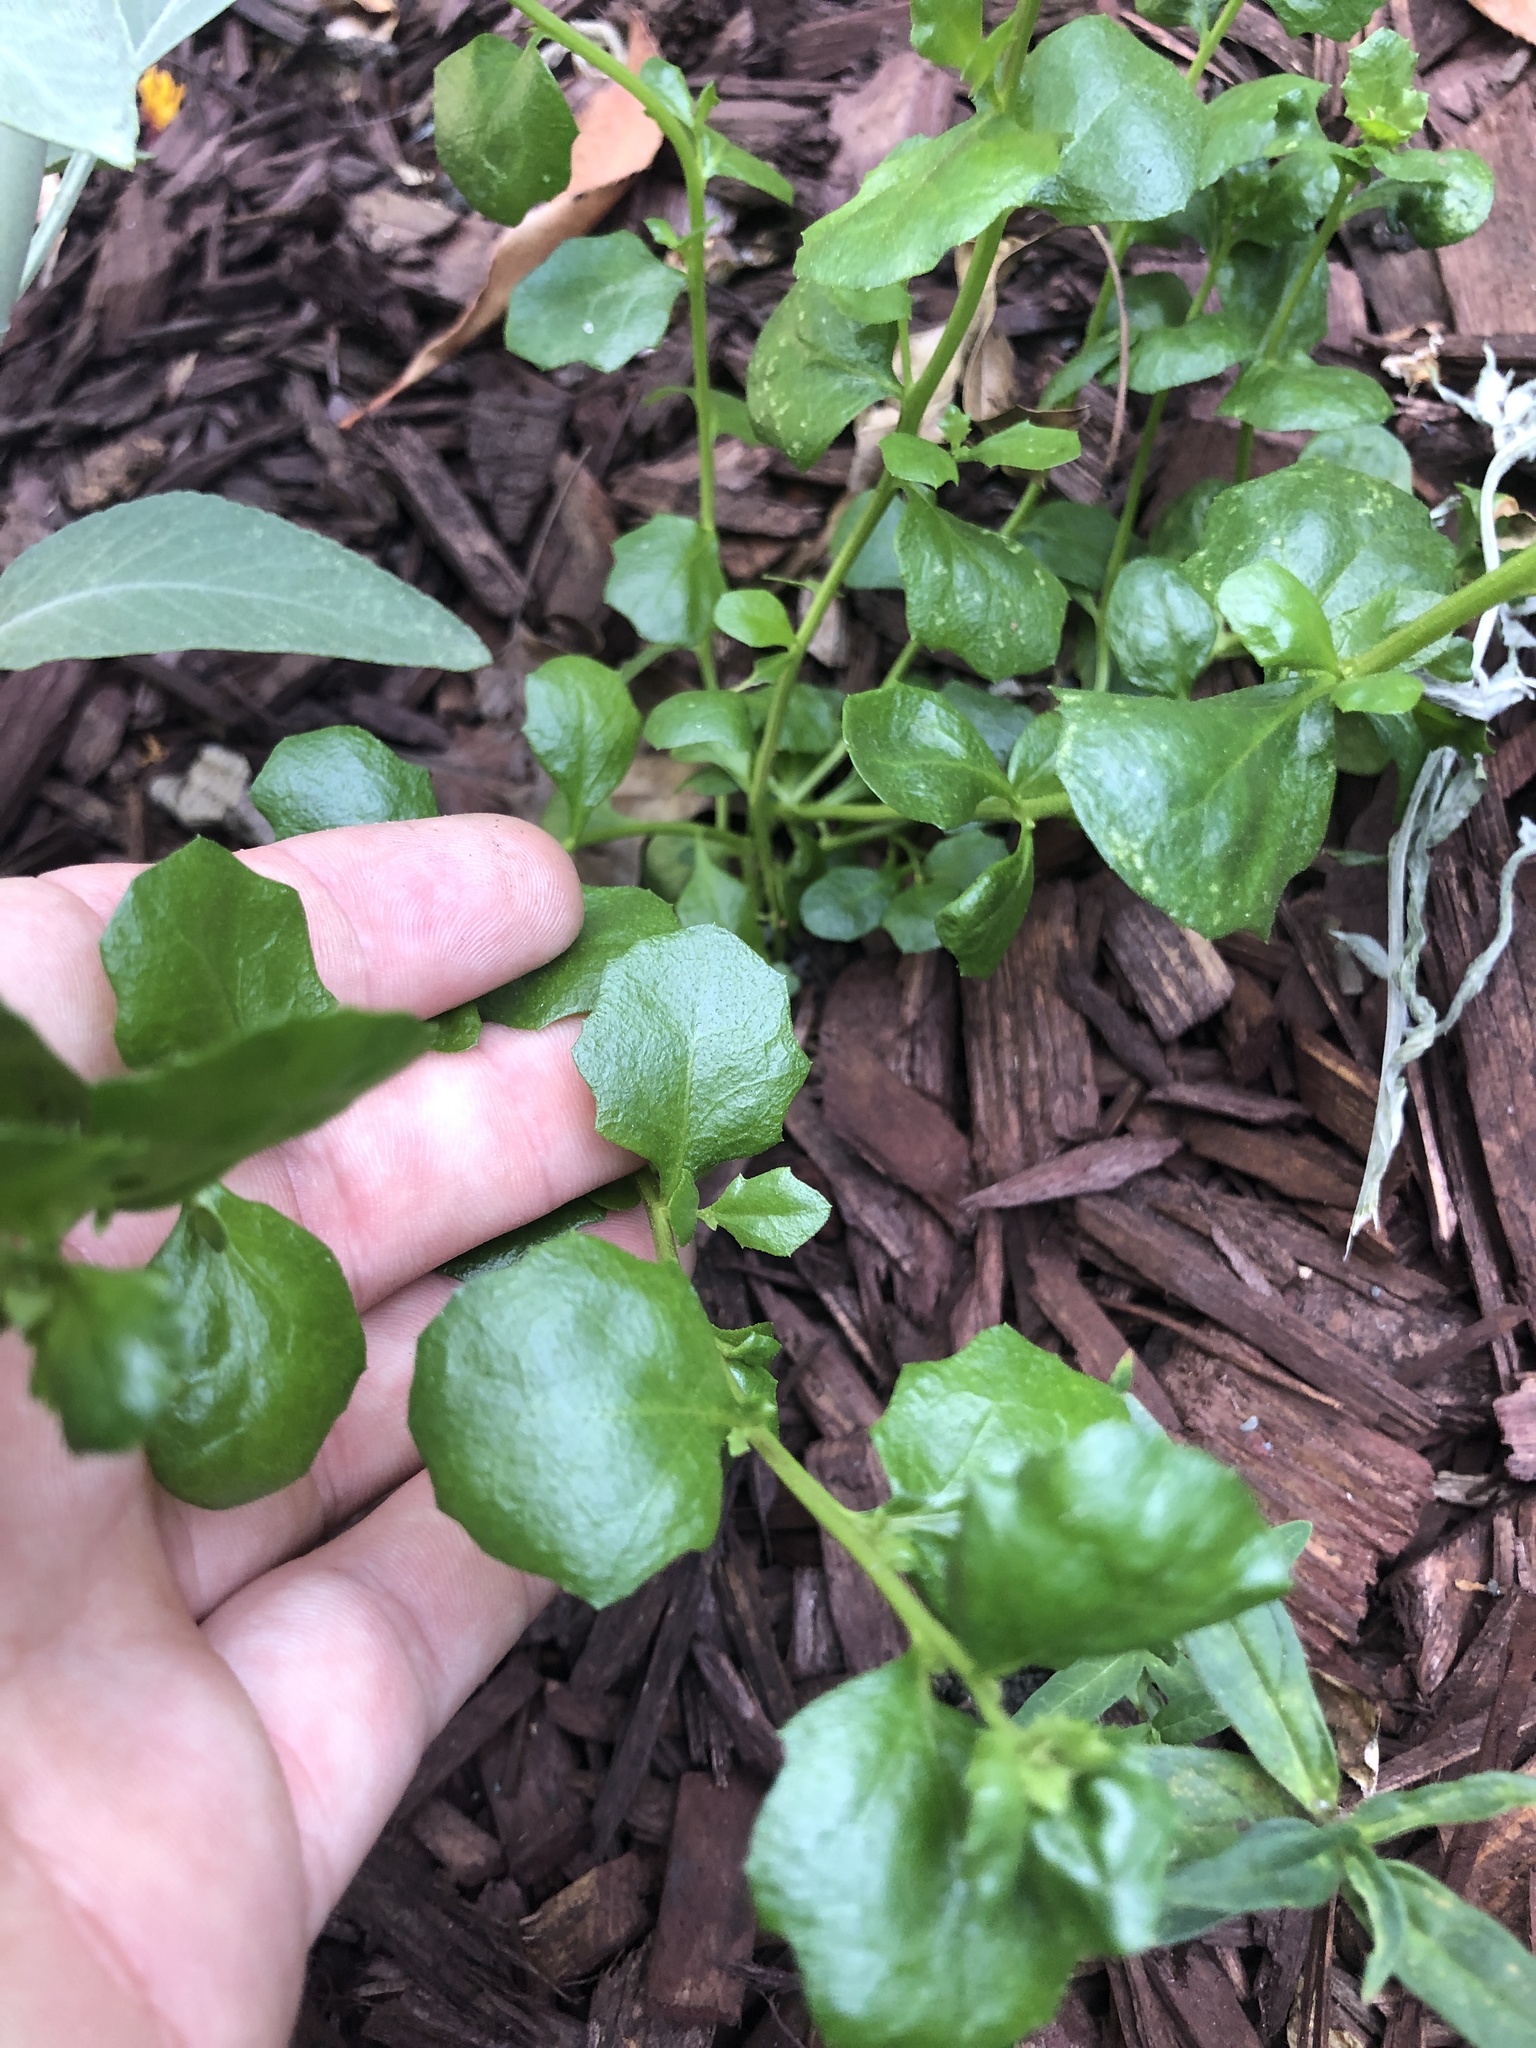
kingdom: Plantae
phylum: Tracheophyta
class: Magnoliopsida
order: Asterales
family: Asteraceae
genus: Baccharis
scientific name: Baccharis pilularis
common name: Coyotebrush
